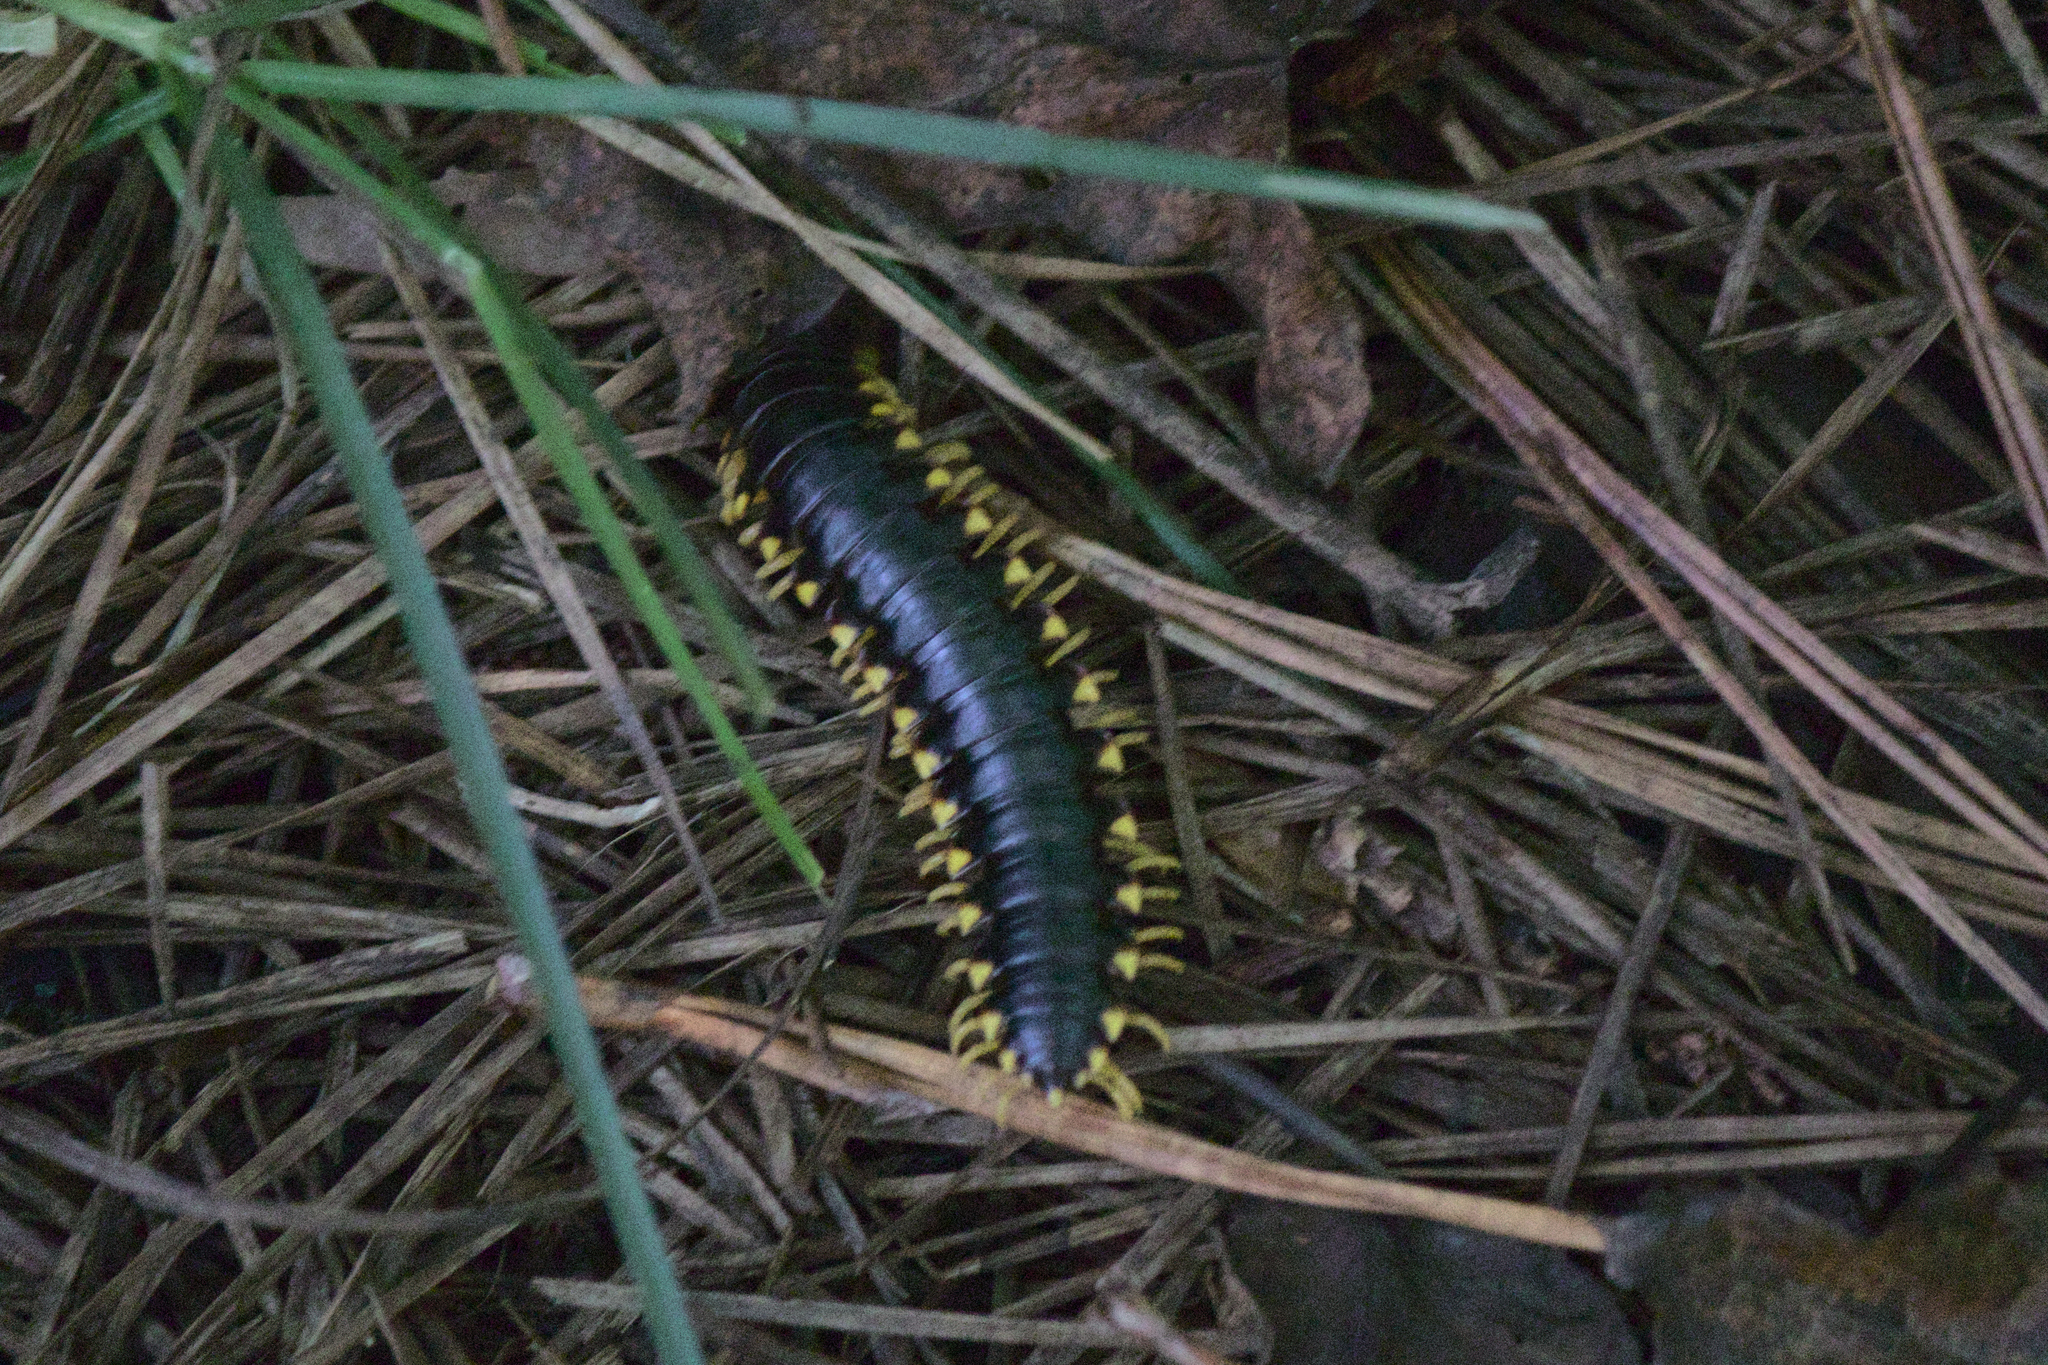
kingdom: Animalia
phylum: Arthropoda
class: Diplopoda
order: Polydesmida
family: Xystodesmidae
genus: Apheloria
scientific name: Apheloria tigana
